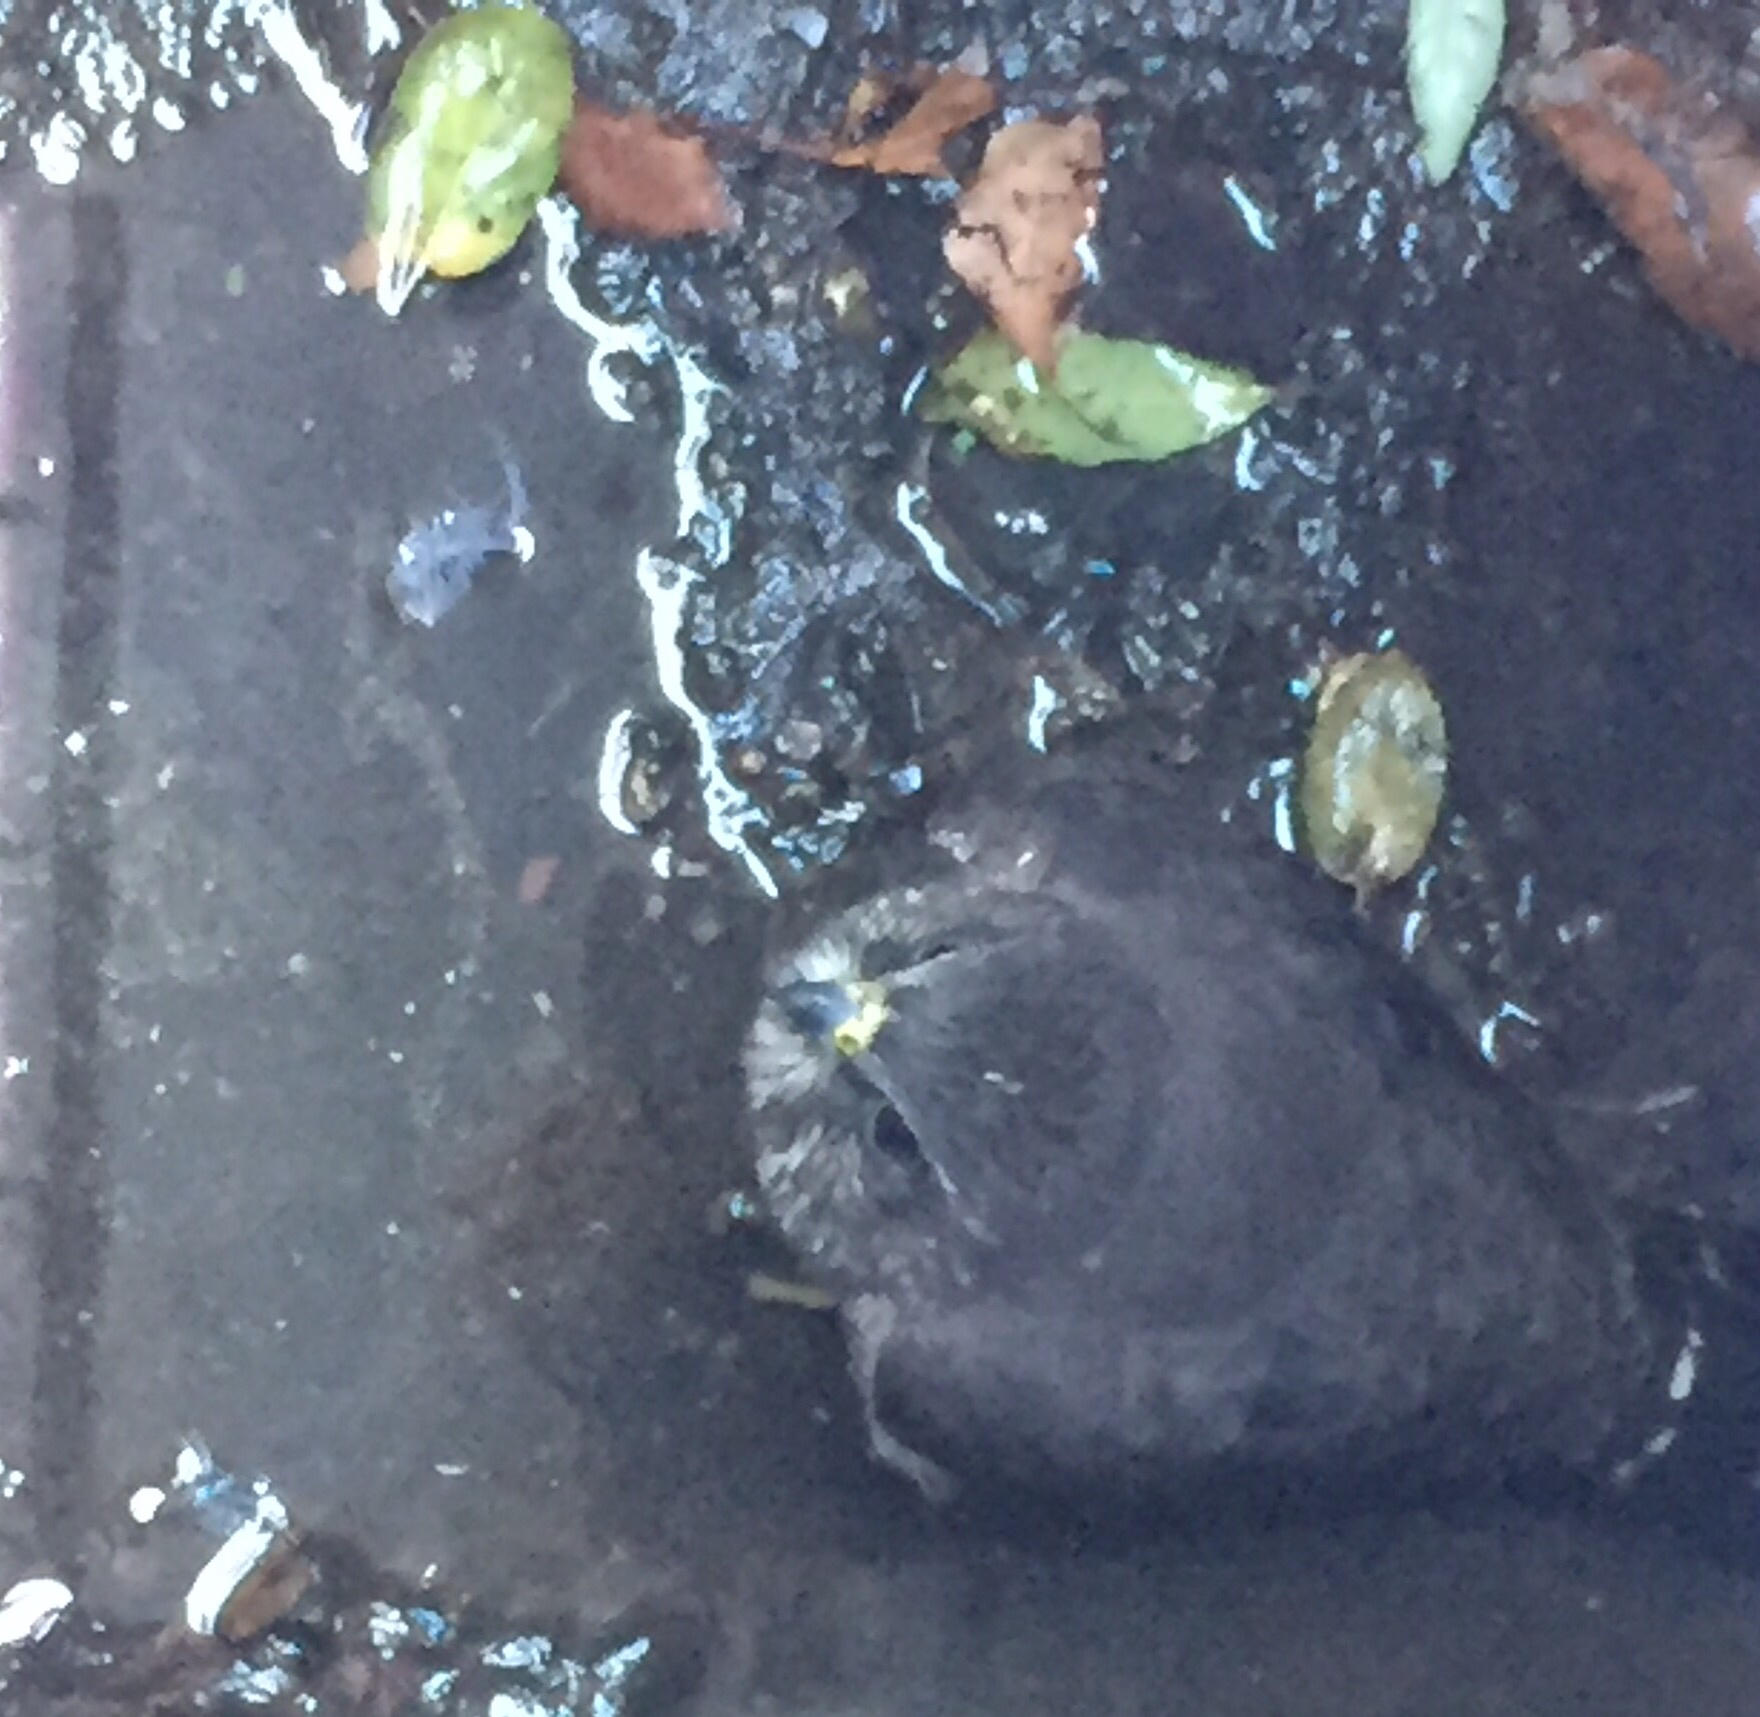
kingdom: Animalia
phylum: Chordata
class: Aves
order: Falconiformes
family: Falconidae
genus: Falco
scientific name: Falco columbarius
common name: Merlin
